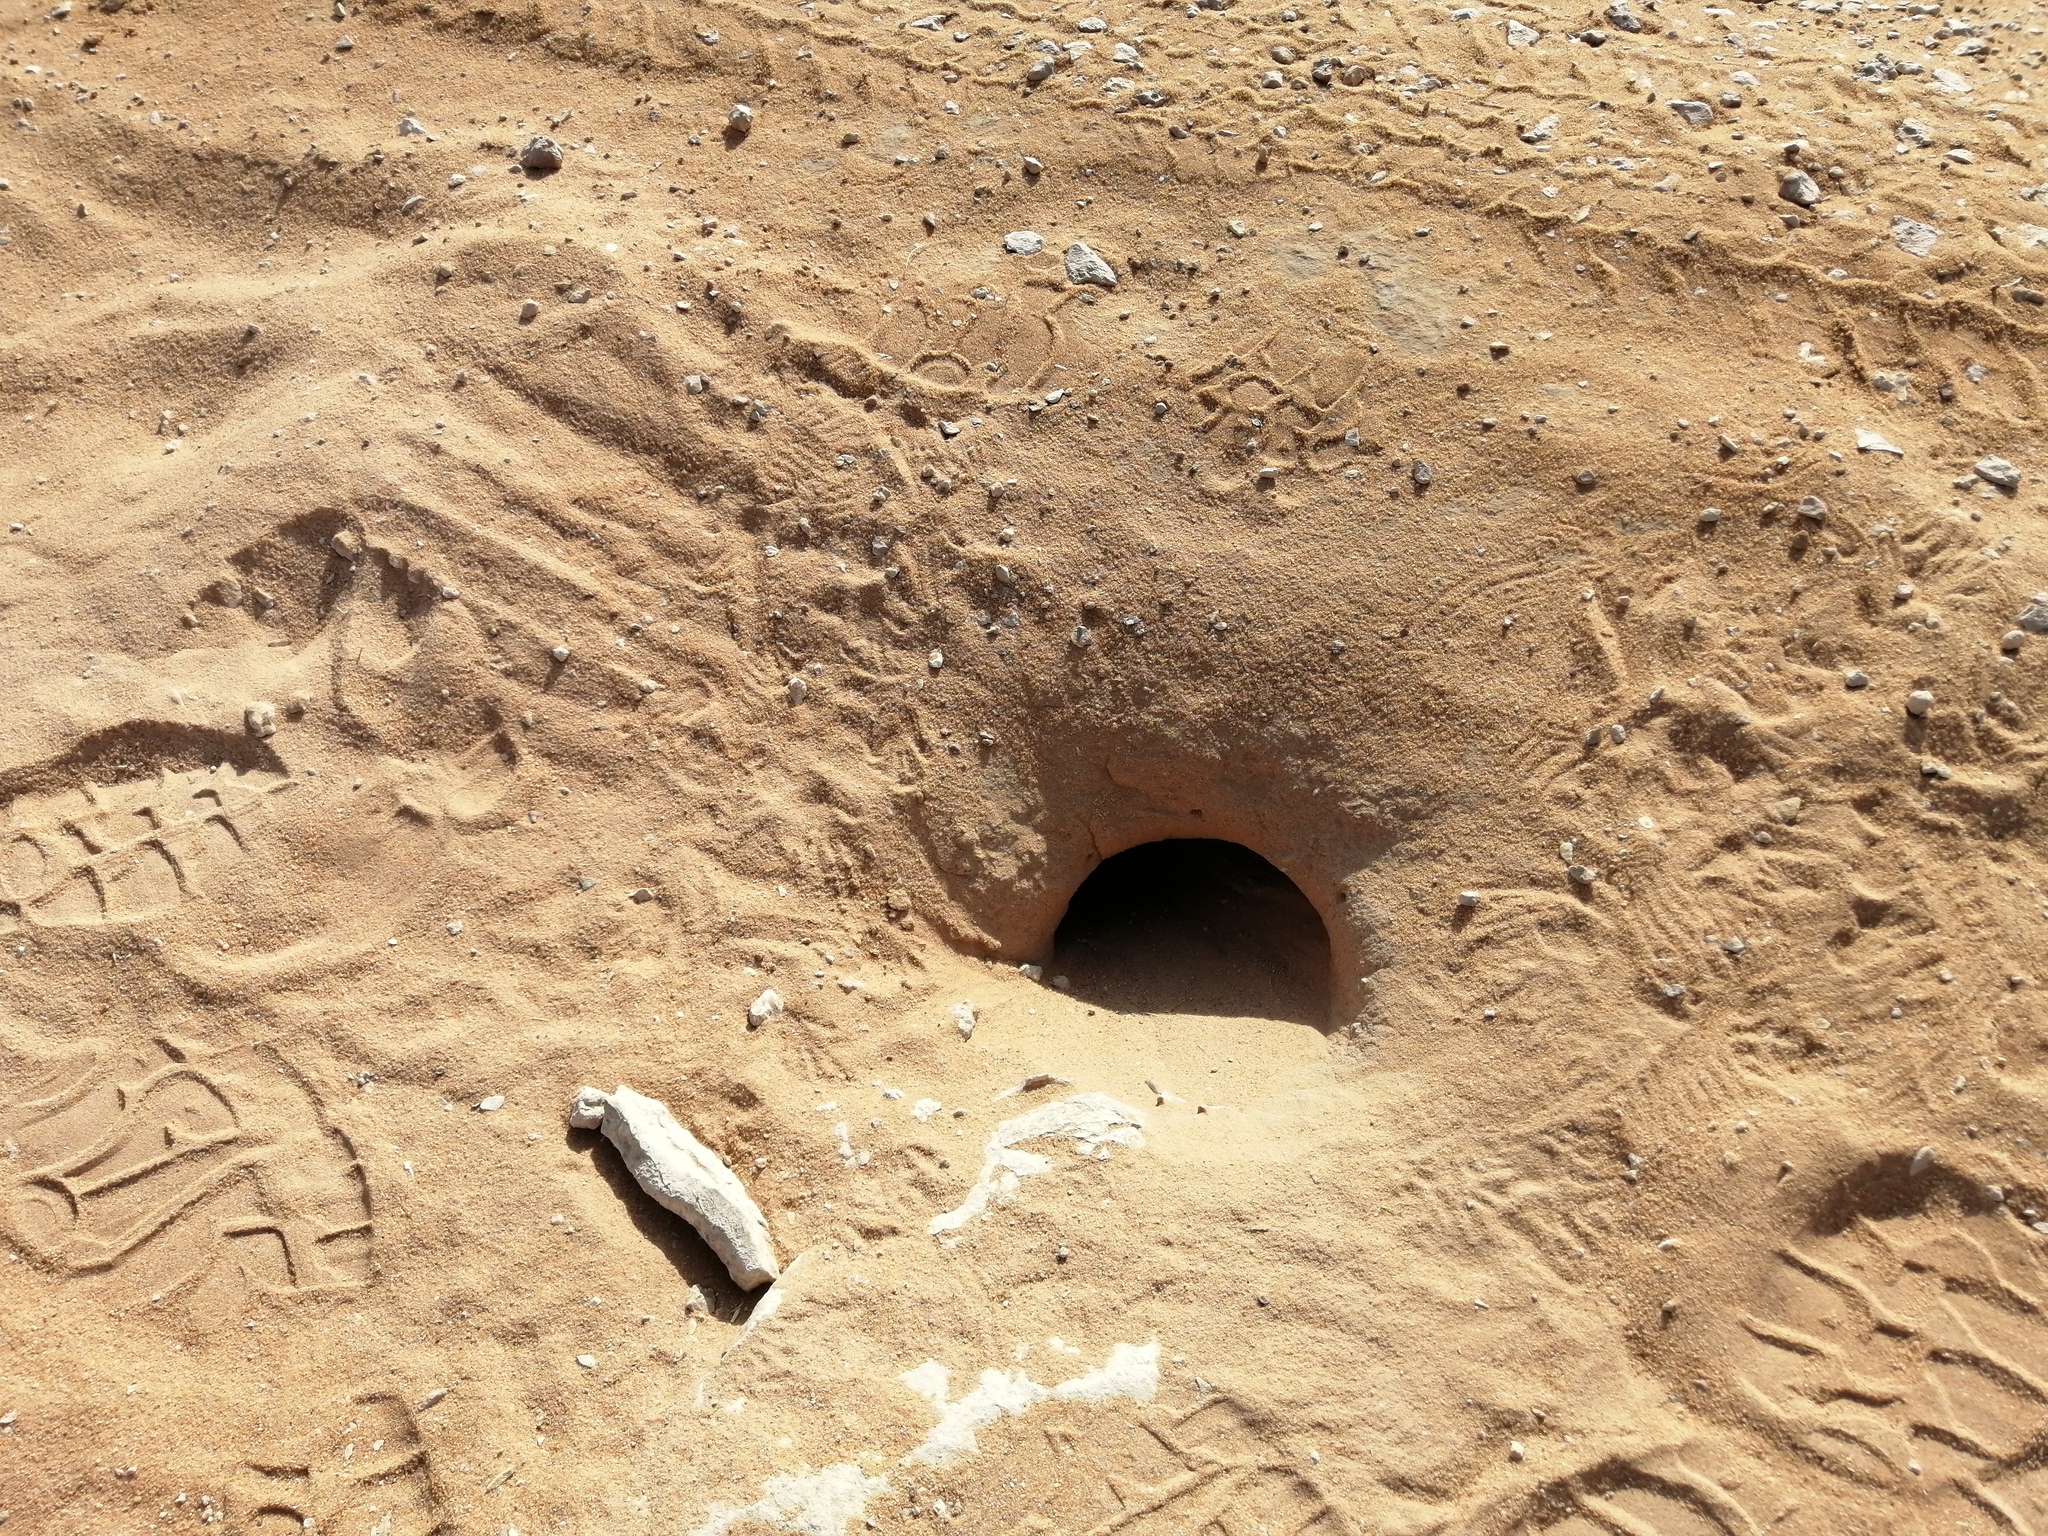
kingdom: Animalia
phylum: Chordata
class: Squamata
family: Agamidae
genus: Uromastyx
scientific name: Uromastyx aegyptia
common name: Egyptian mastigure
